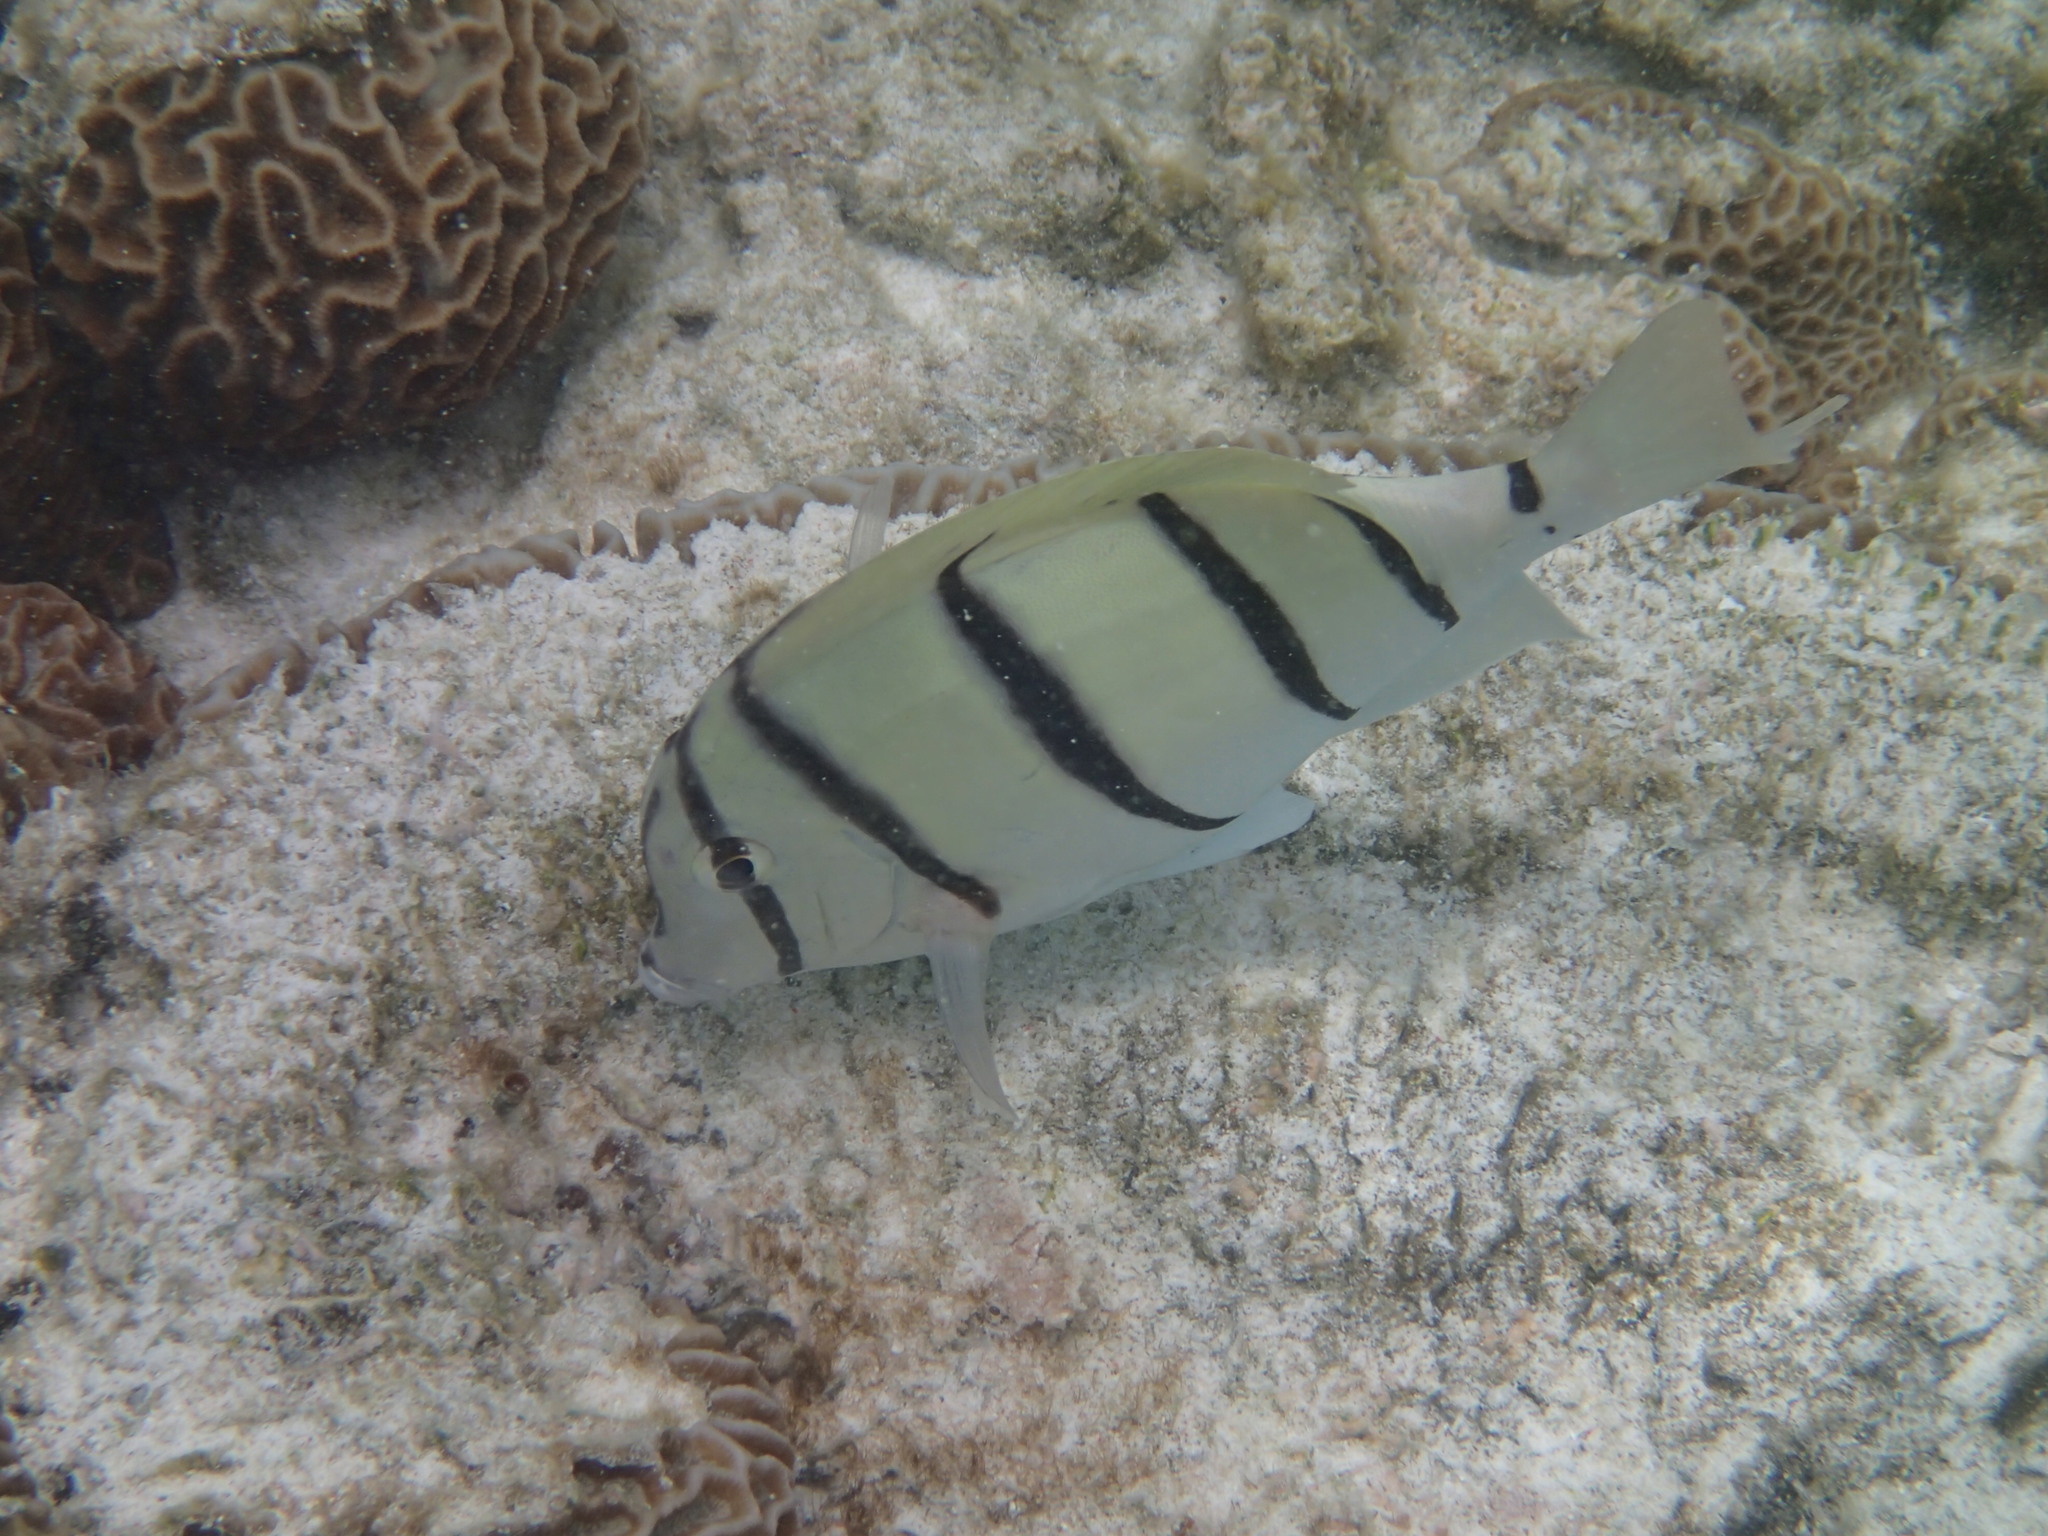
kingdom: Animalia
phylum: Chordata
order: Perciformes
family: Acanthuridae
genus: Acanthurus
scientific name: Acanthurus triostegus
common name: Convict surgeonfish
